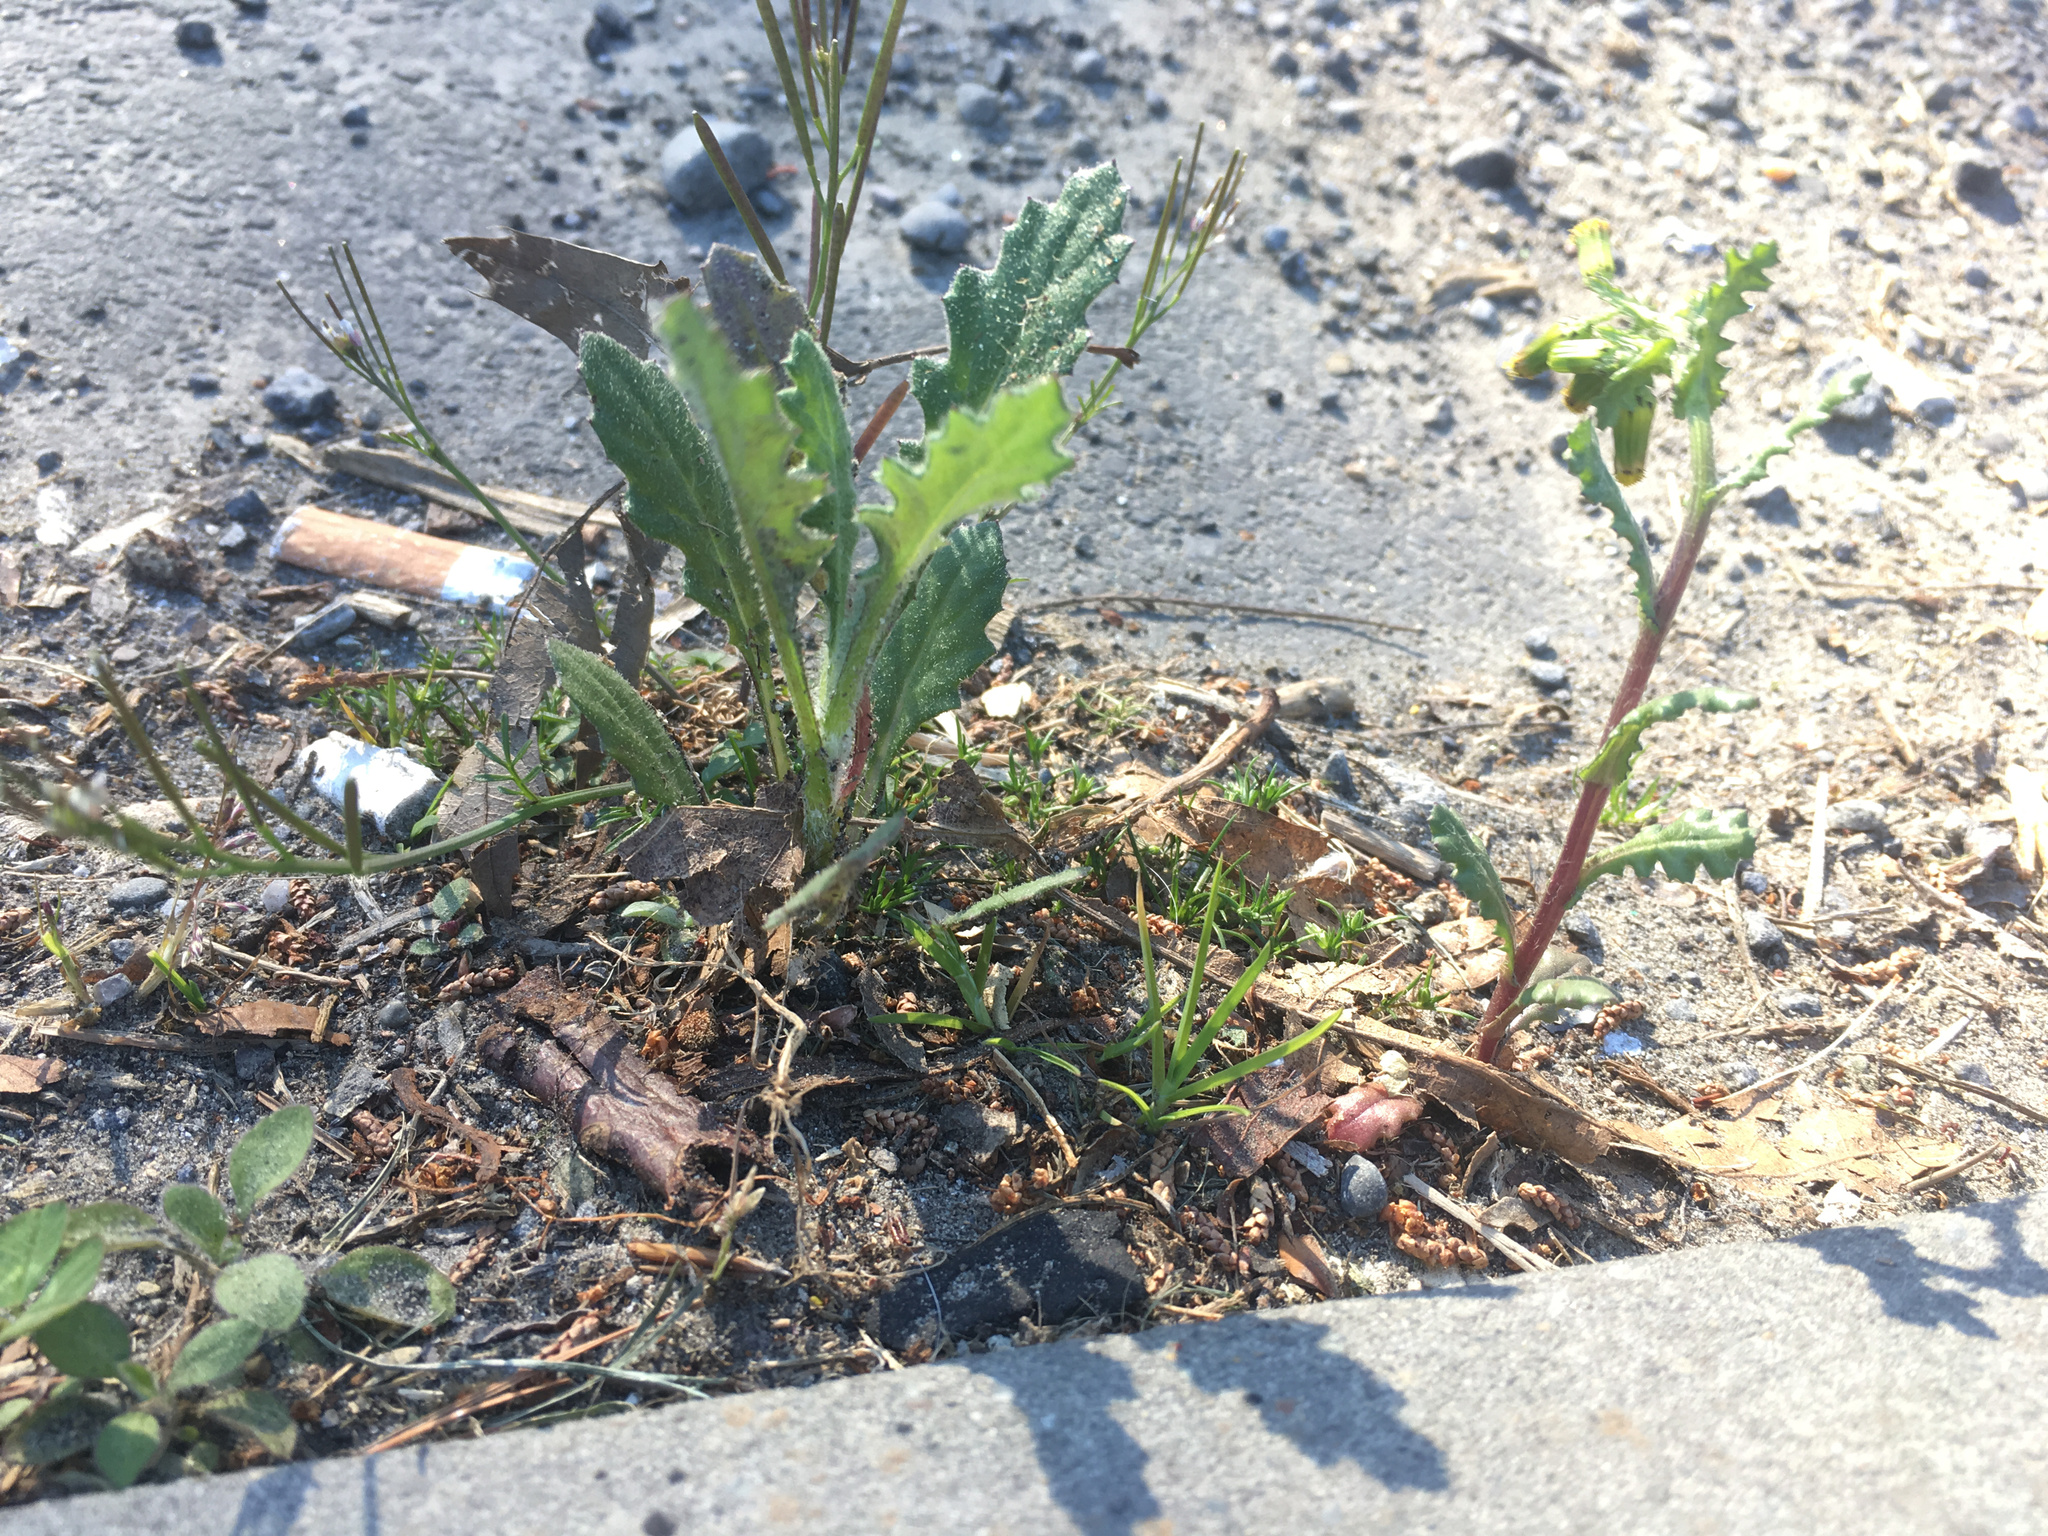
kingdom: Plantae
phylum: Tracheophyta
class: Magnoliopsida
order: Asterales
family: Asteraceae
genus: Senecio
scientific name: Senecio glomeratus
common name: Cutleaf burnweed
